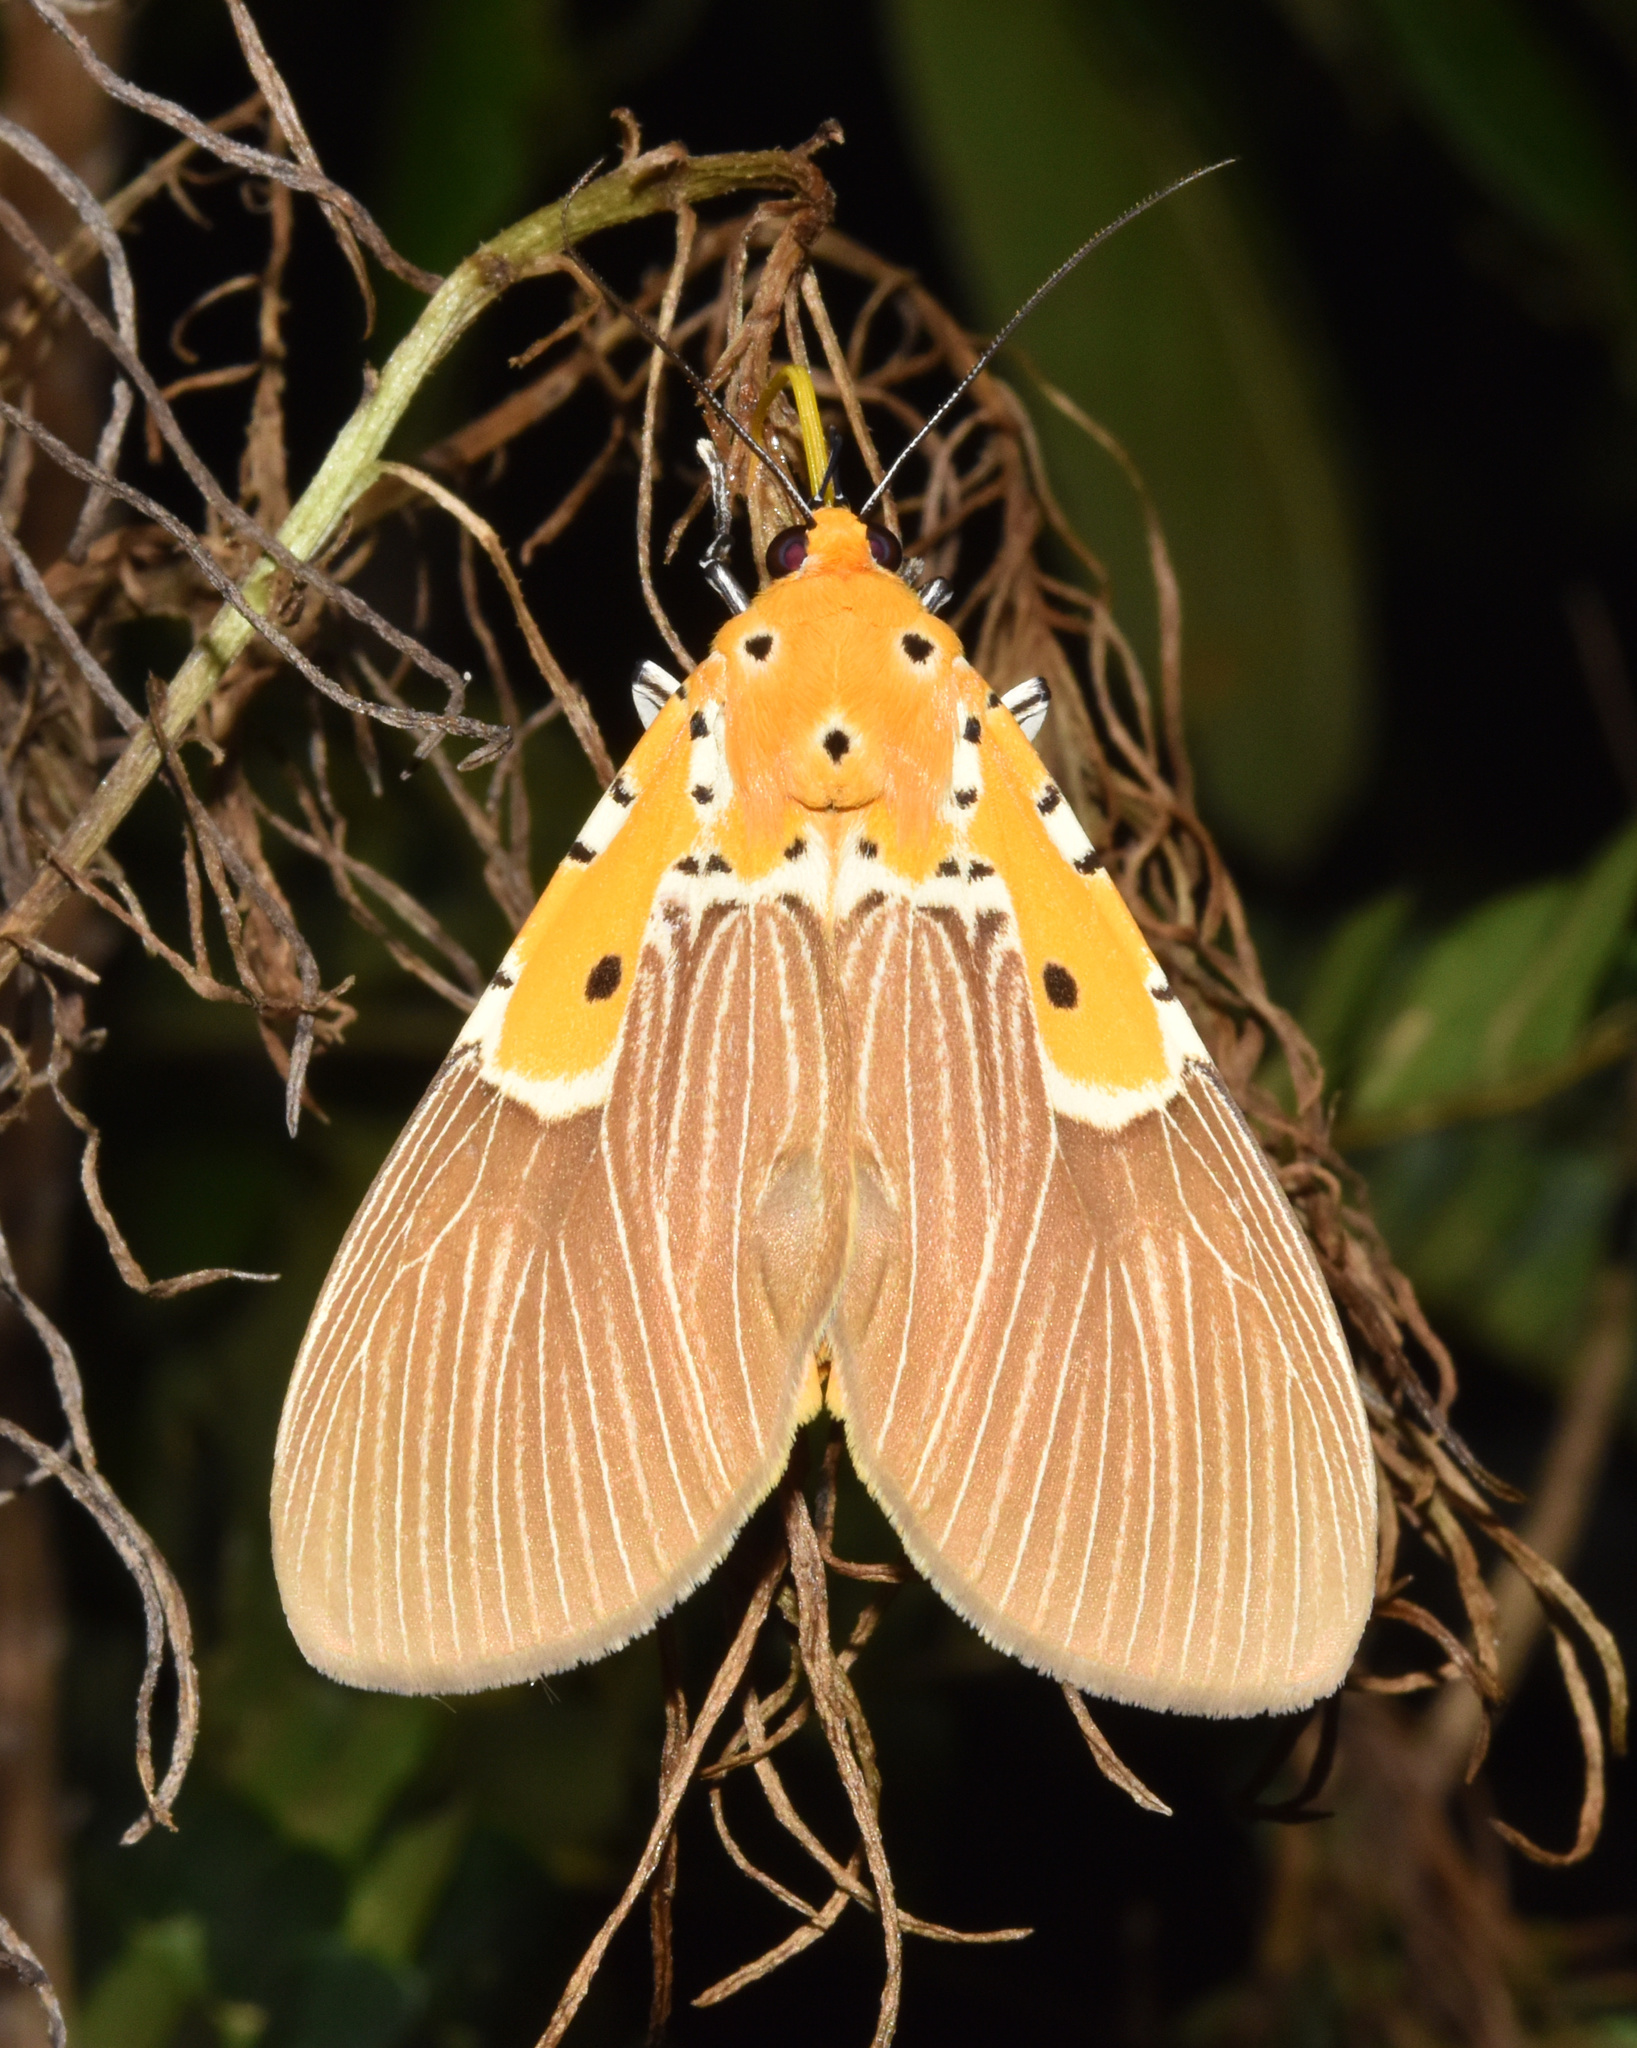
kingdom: Animalia
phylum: Arthropoda
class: Insecta
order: Lepidoptera
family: Erebidae
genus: Asota
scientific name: Asota speciosa
